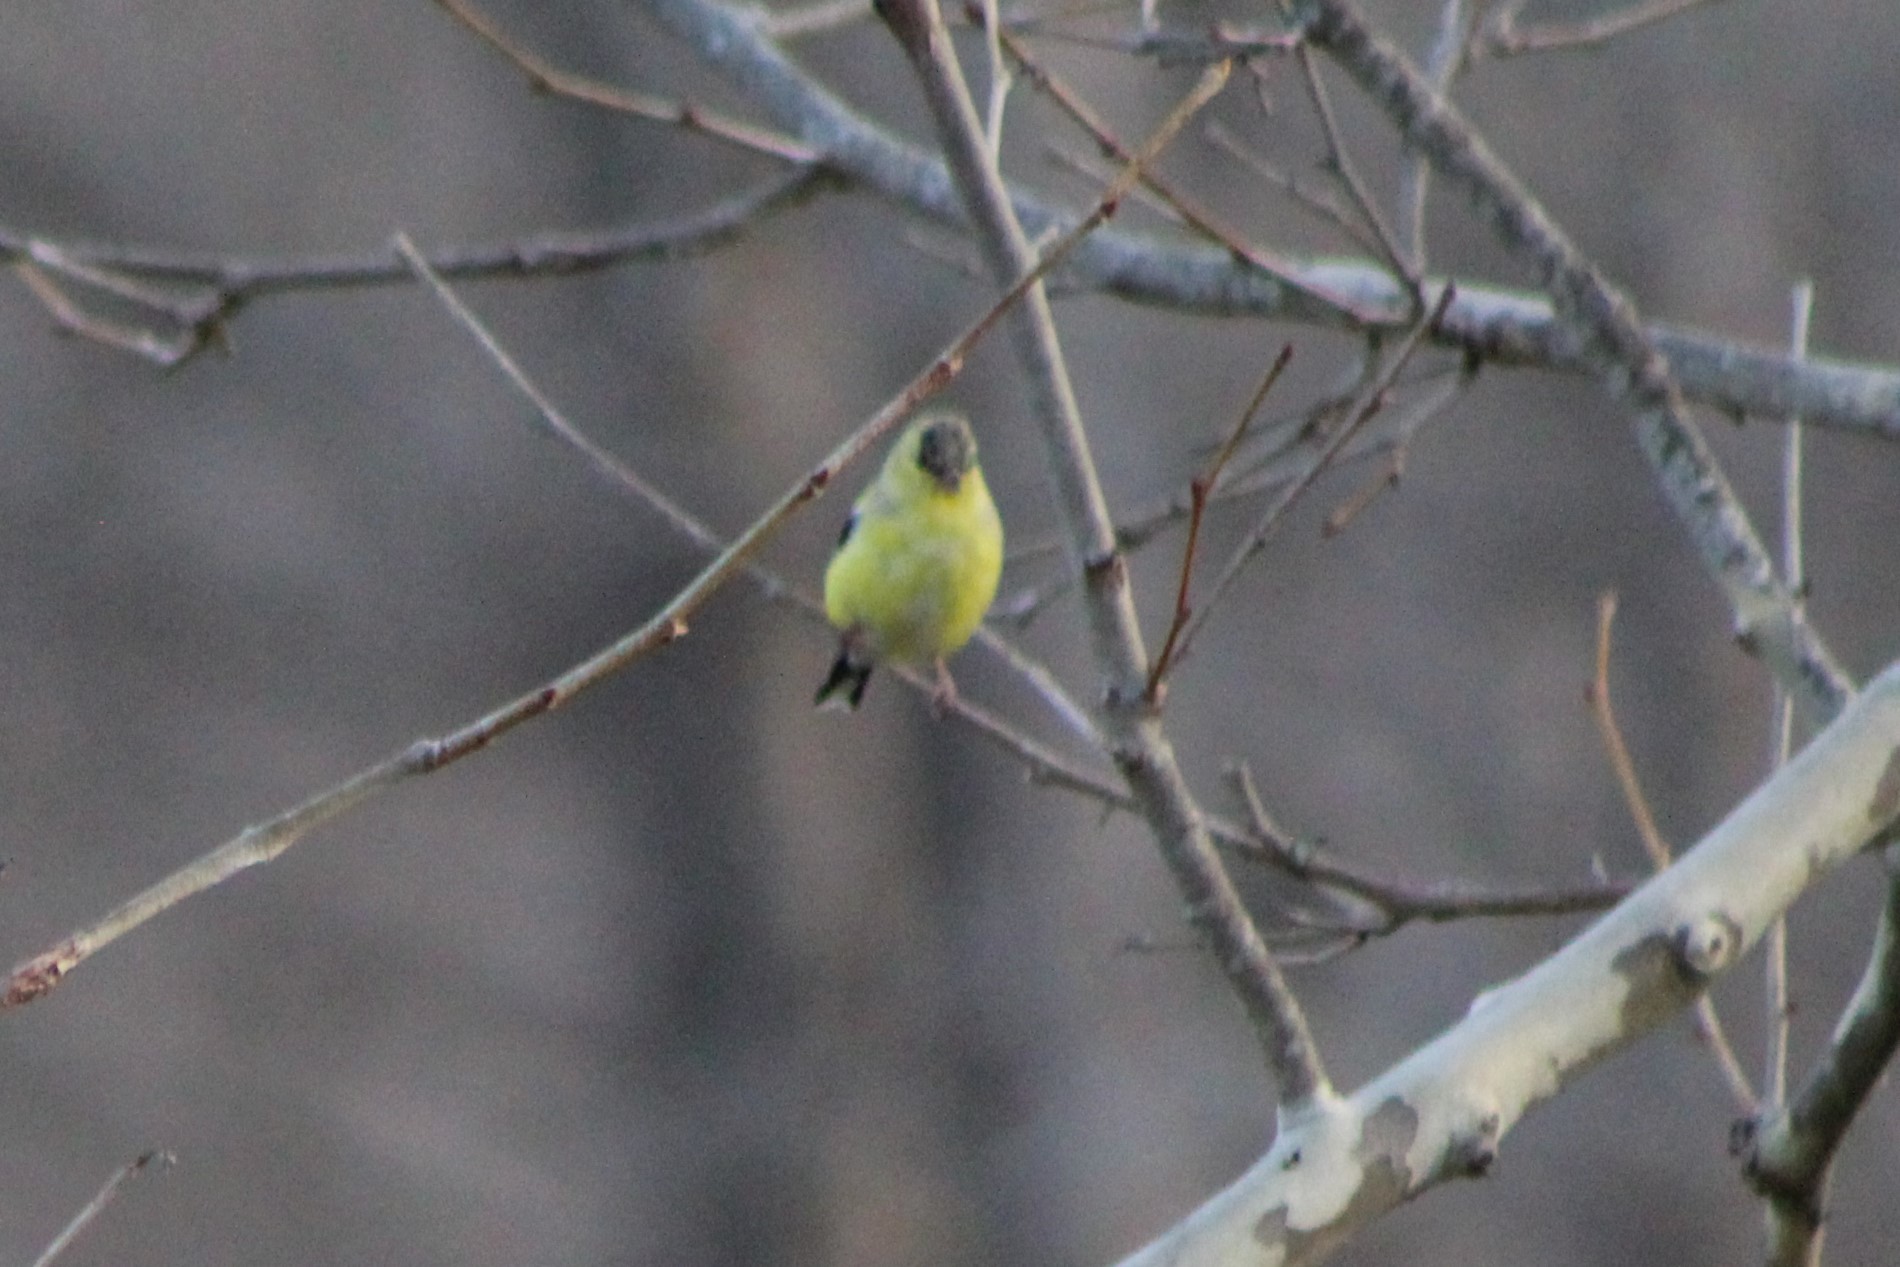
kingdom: Animalia
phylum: Chordata
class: Aves
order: Passeriformes
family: Fringillidae
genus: Spinus
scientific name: Spinus tristis
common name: American goldfinch
